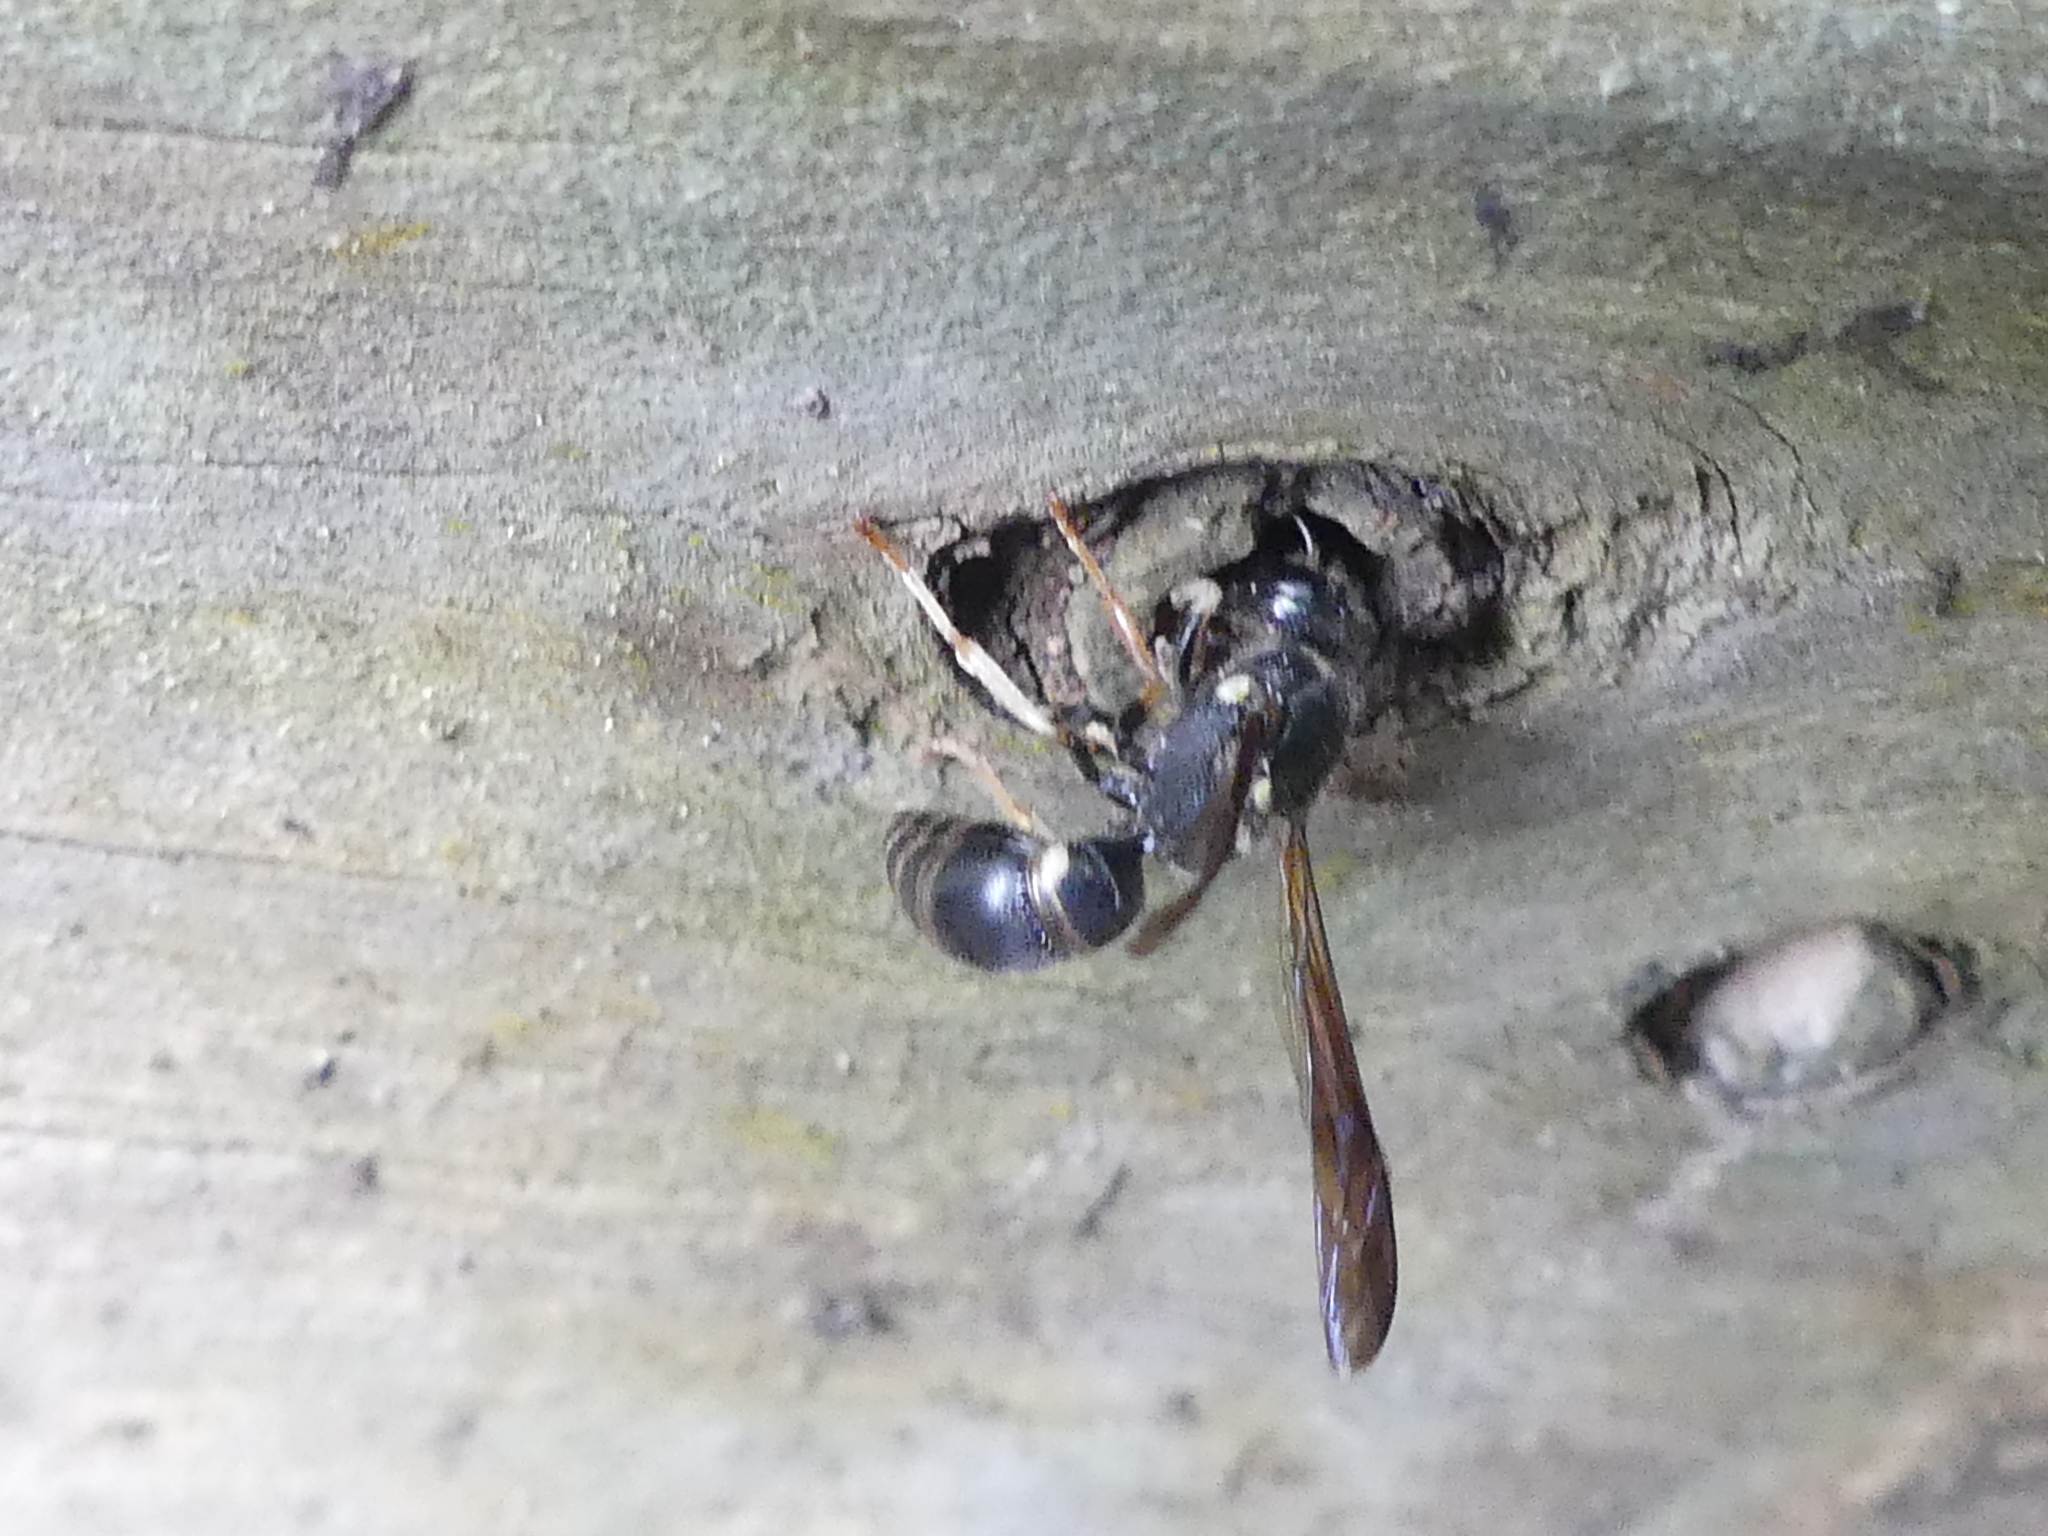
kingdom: Animalia
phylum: Arthropoda
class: Insecta
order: Hymenoptera
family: Vespidae
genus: Ancistrocerus
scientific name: Ancistrocerus adiabatus
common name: Bramble mason wasp
